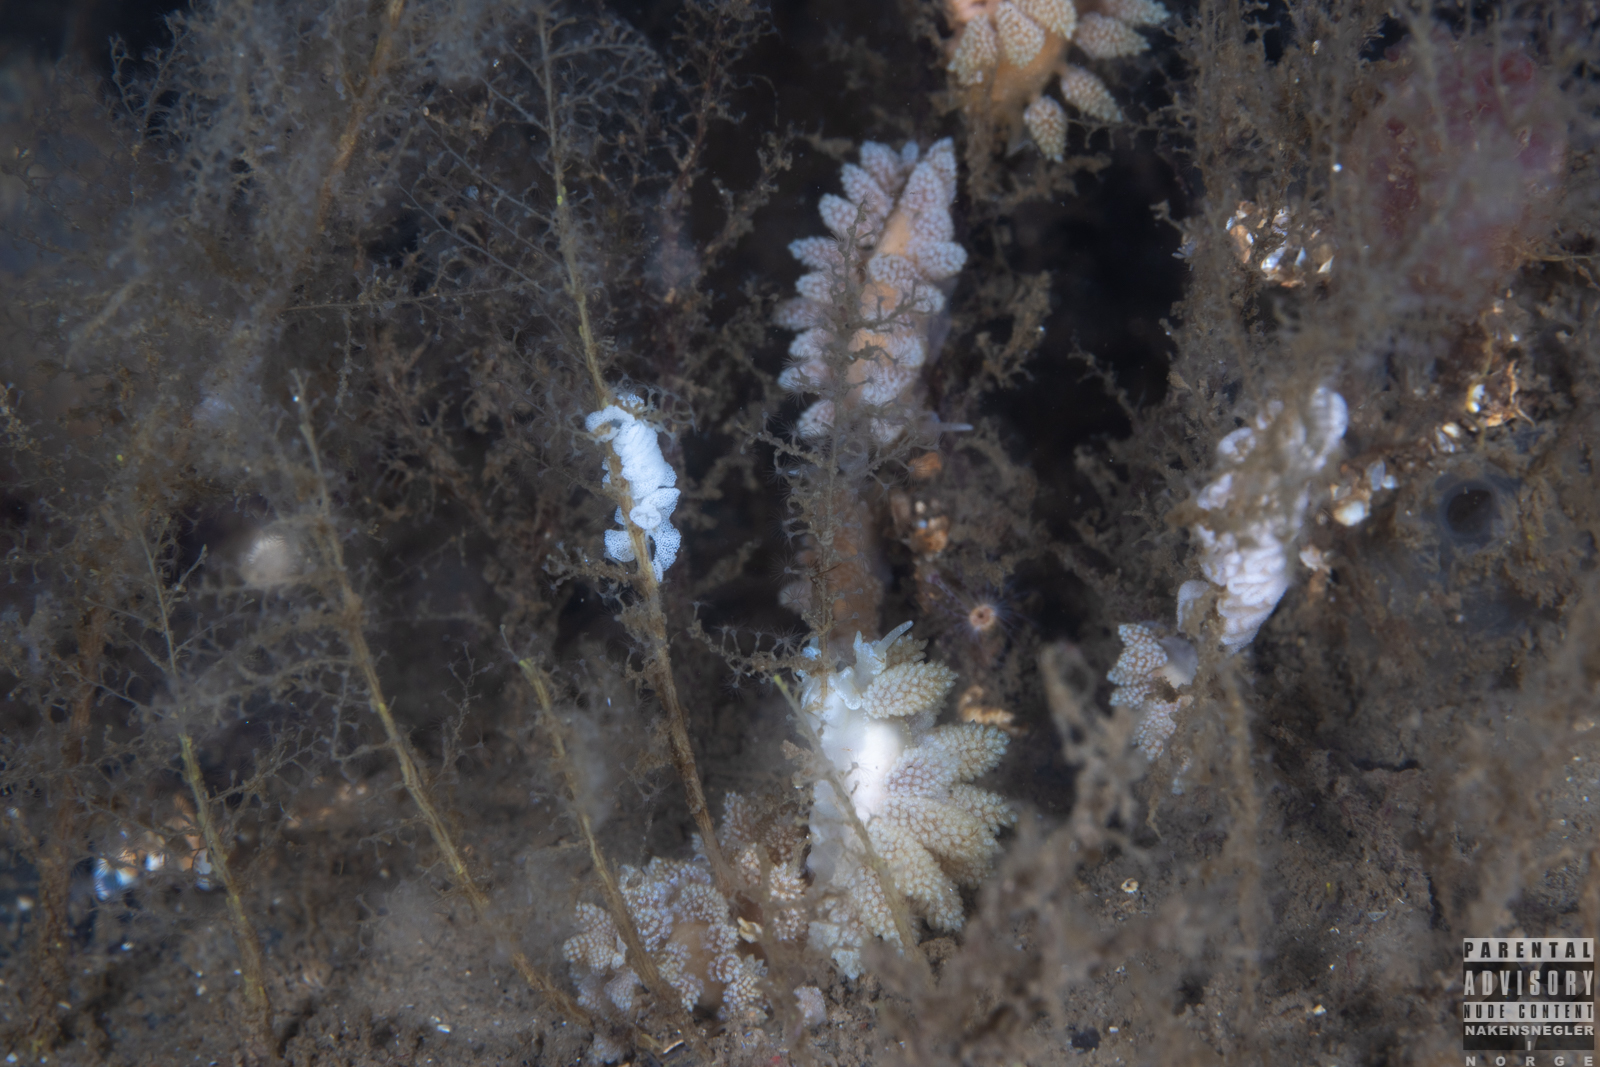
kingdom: Animalia
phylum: Mollusca
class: Gastropoda
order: Nudibranchia
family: Dotidae
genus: Doto
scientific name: Doto fragilis
